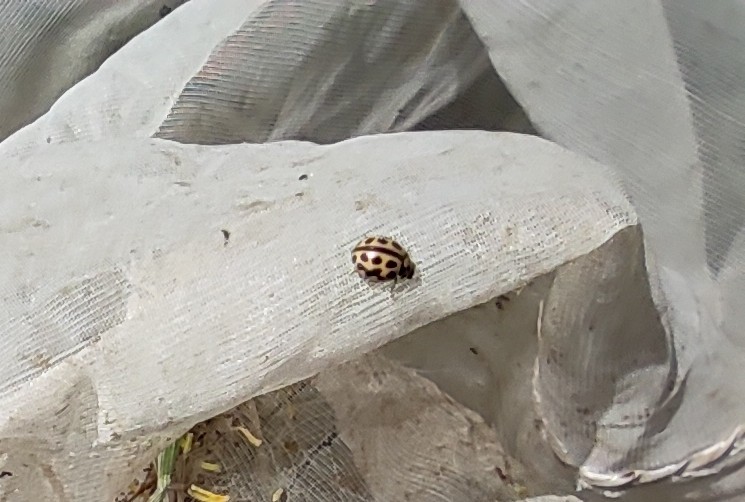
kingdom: Animalia
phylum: Arthropoda
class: Insecta
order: Coleoptera
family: Coccinellidae
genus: Tytthaspis
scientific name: Tytthaspis sedecimpunctata
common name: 16-spot ladybird
